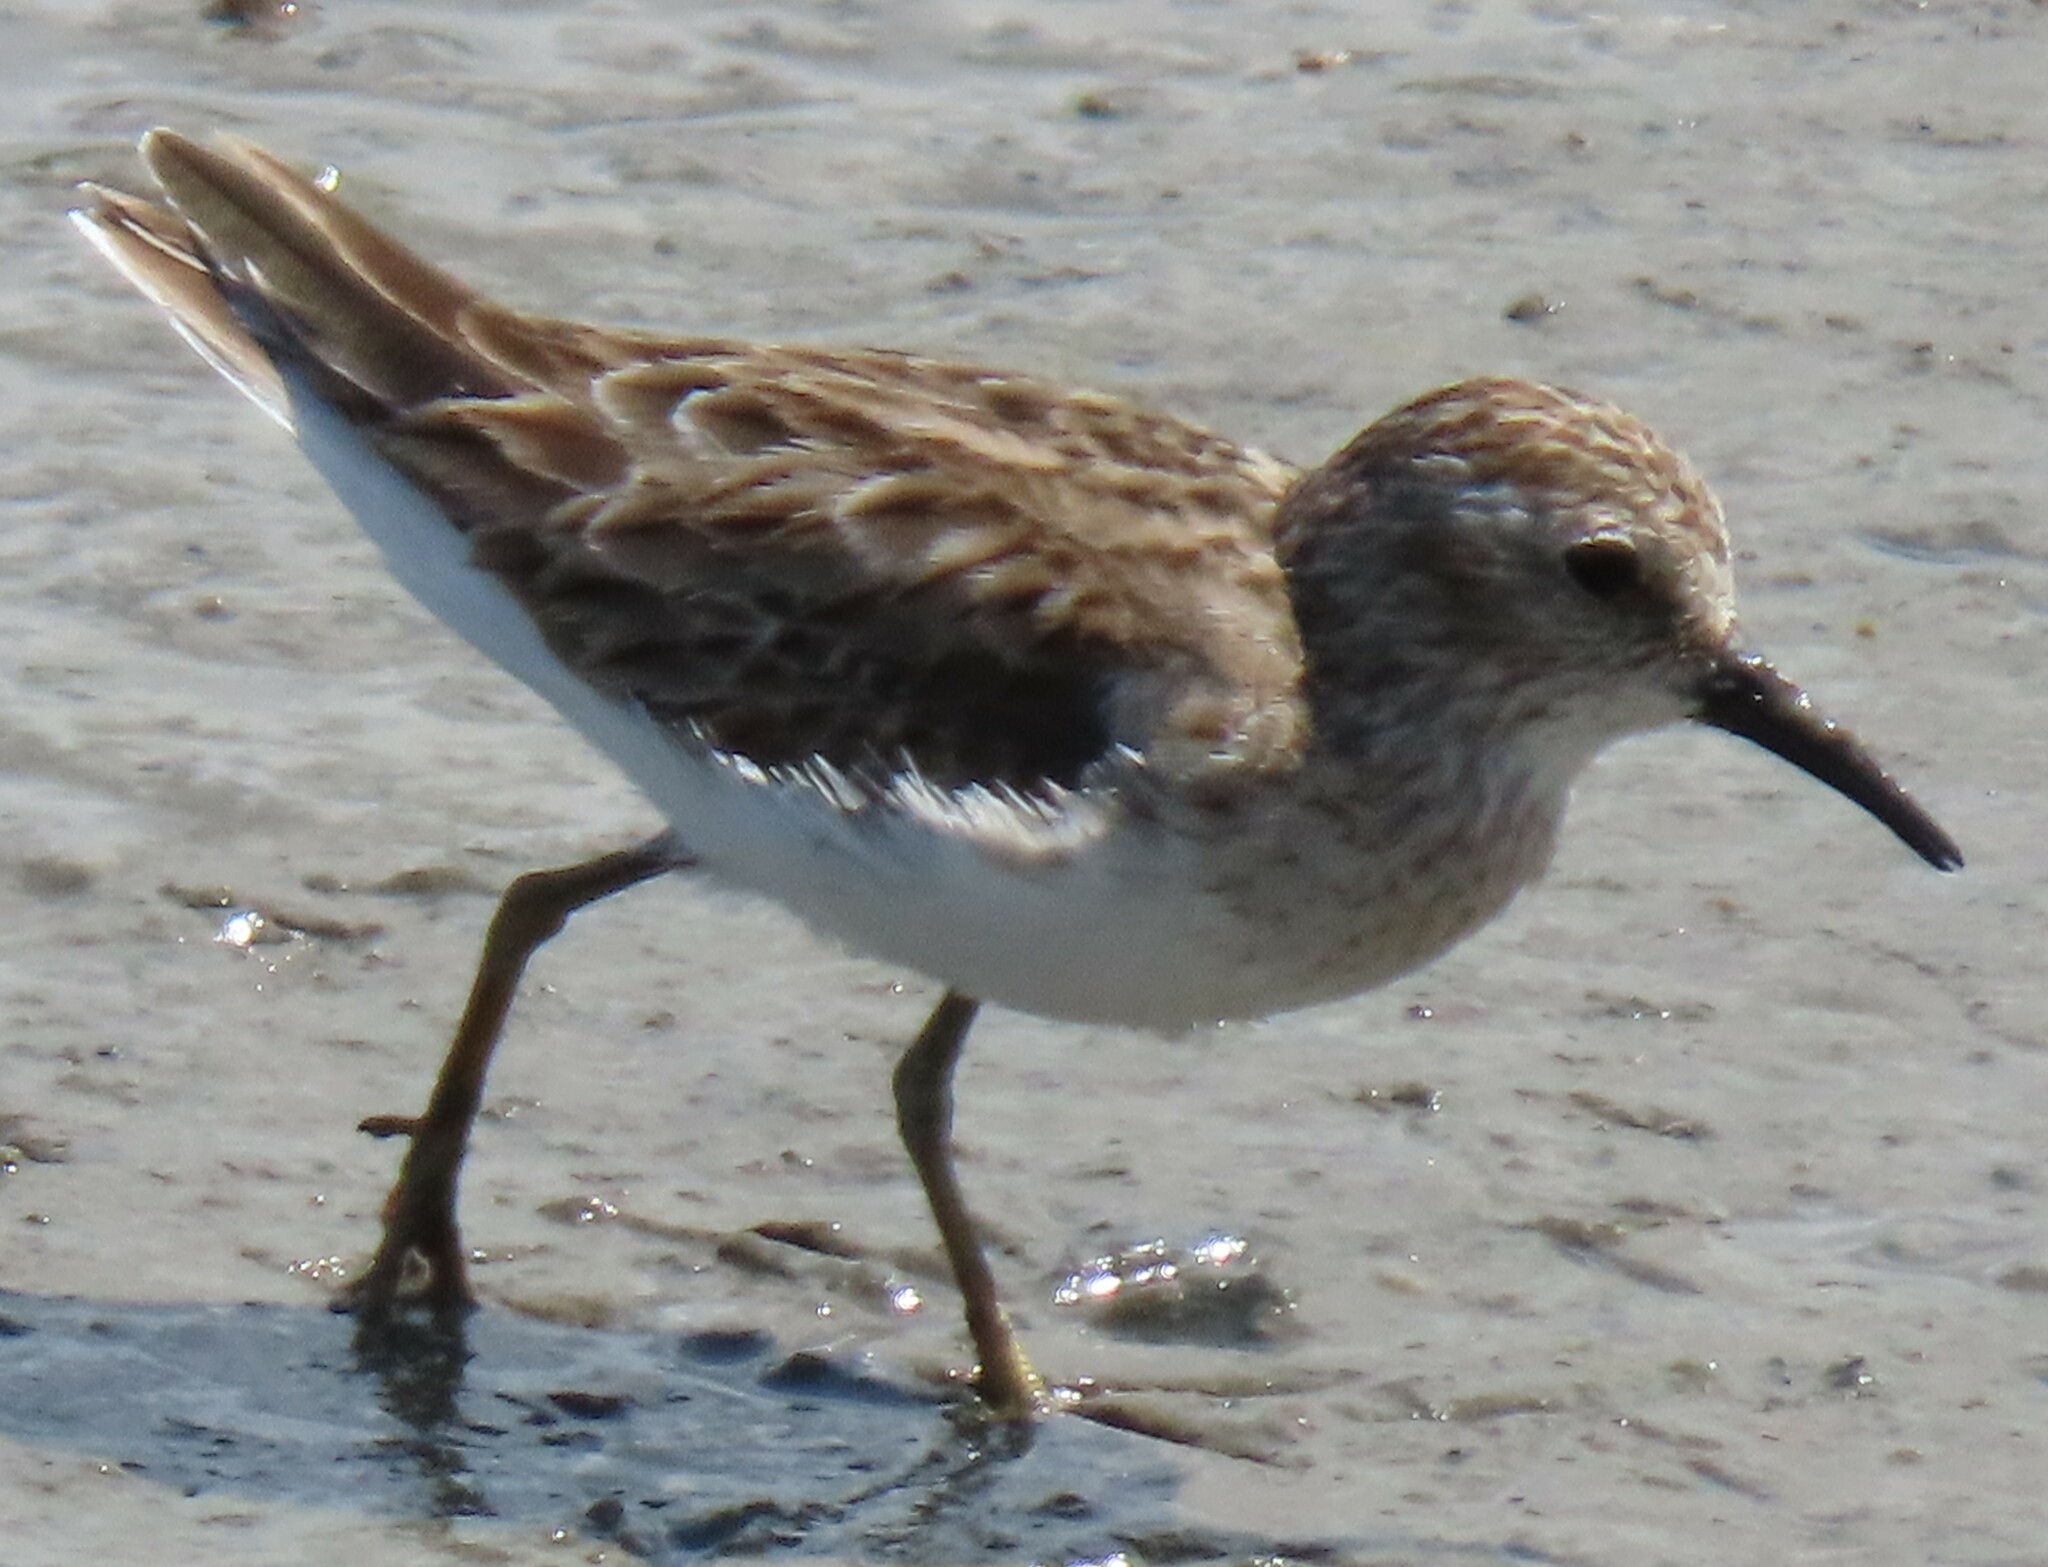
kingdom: Animalia
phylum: Chordata
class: Aves
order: Charadriiformes
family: Scolopacidae
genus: Calidris
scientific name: Calidris minutilla
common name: Least sandpiper
